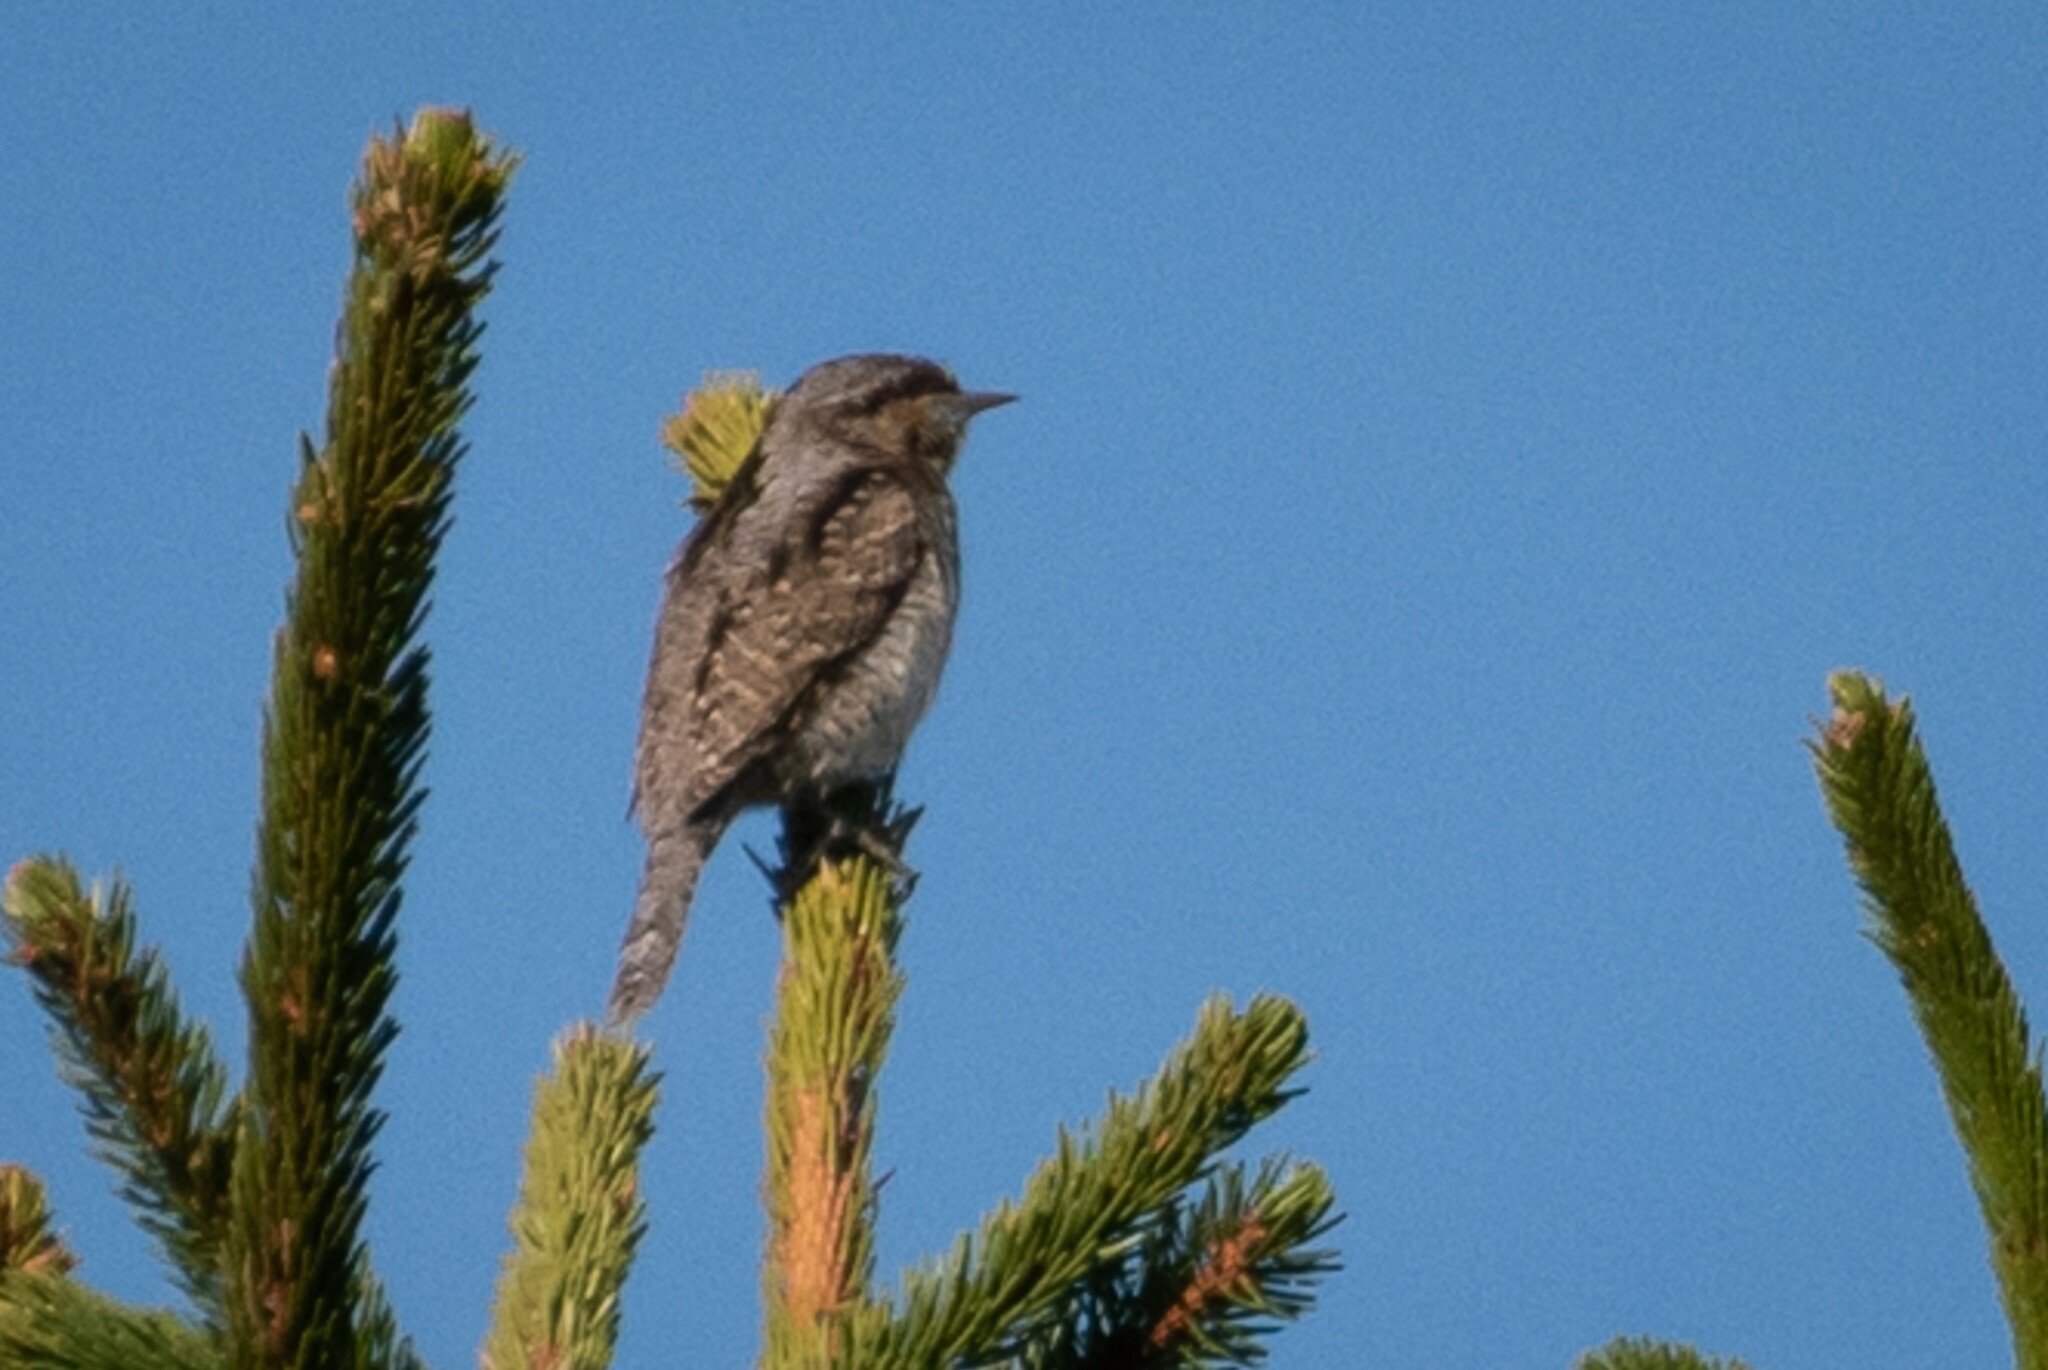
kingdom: Animalia
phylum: Chordata
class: Aves
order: Piciformes
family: Picidae
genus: Jynx
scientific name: Jynx torquilla
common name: Eurasian wryneck
